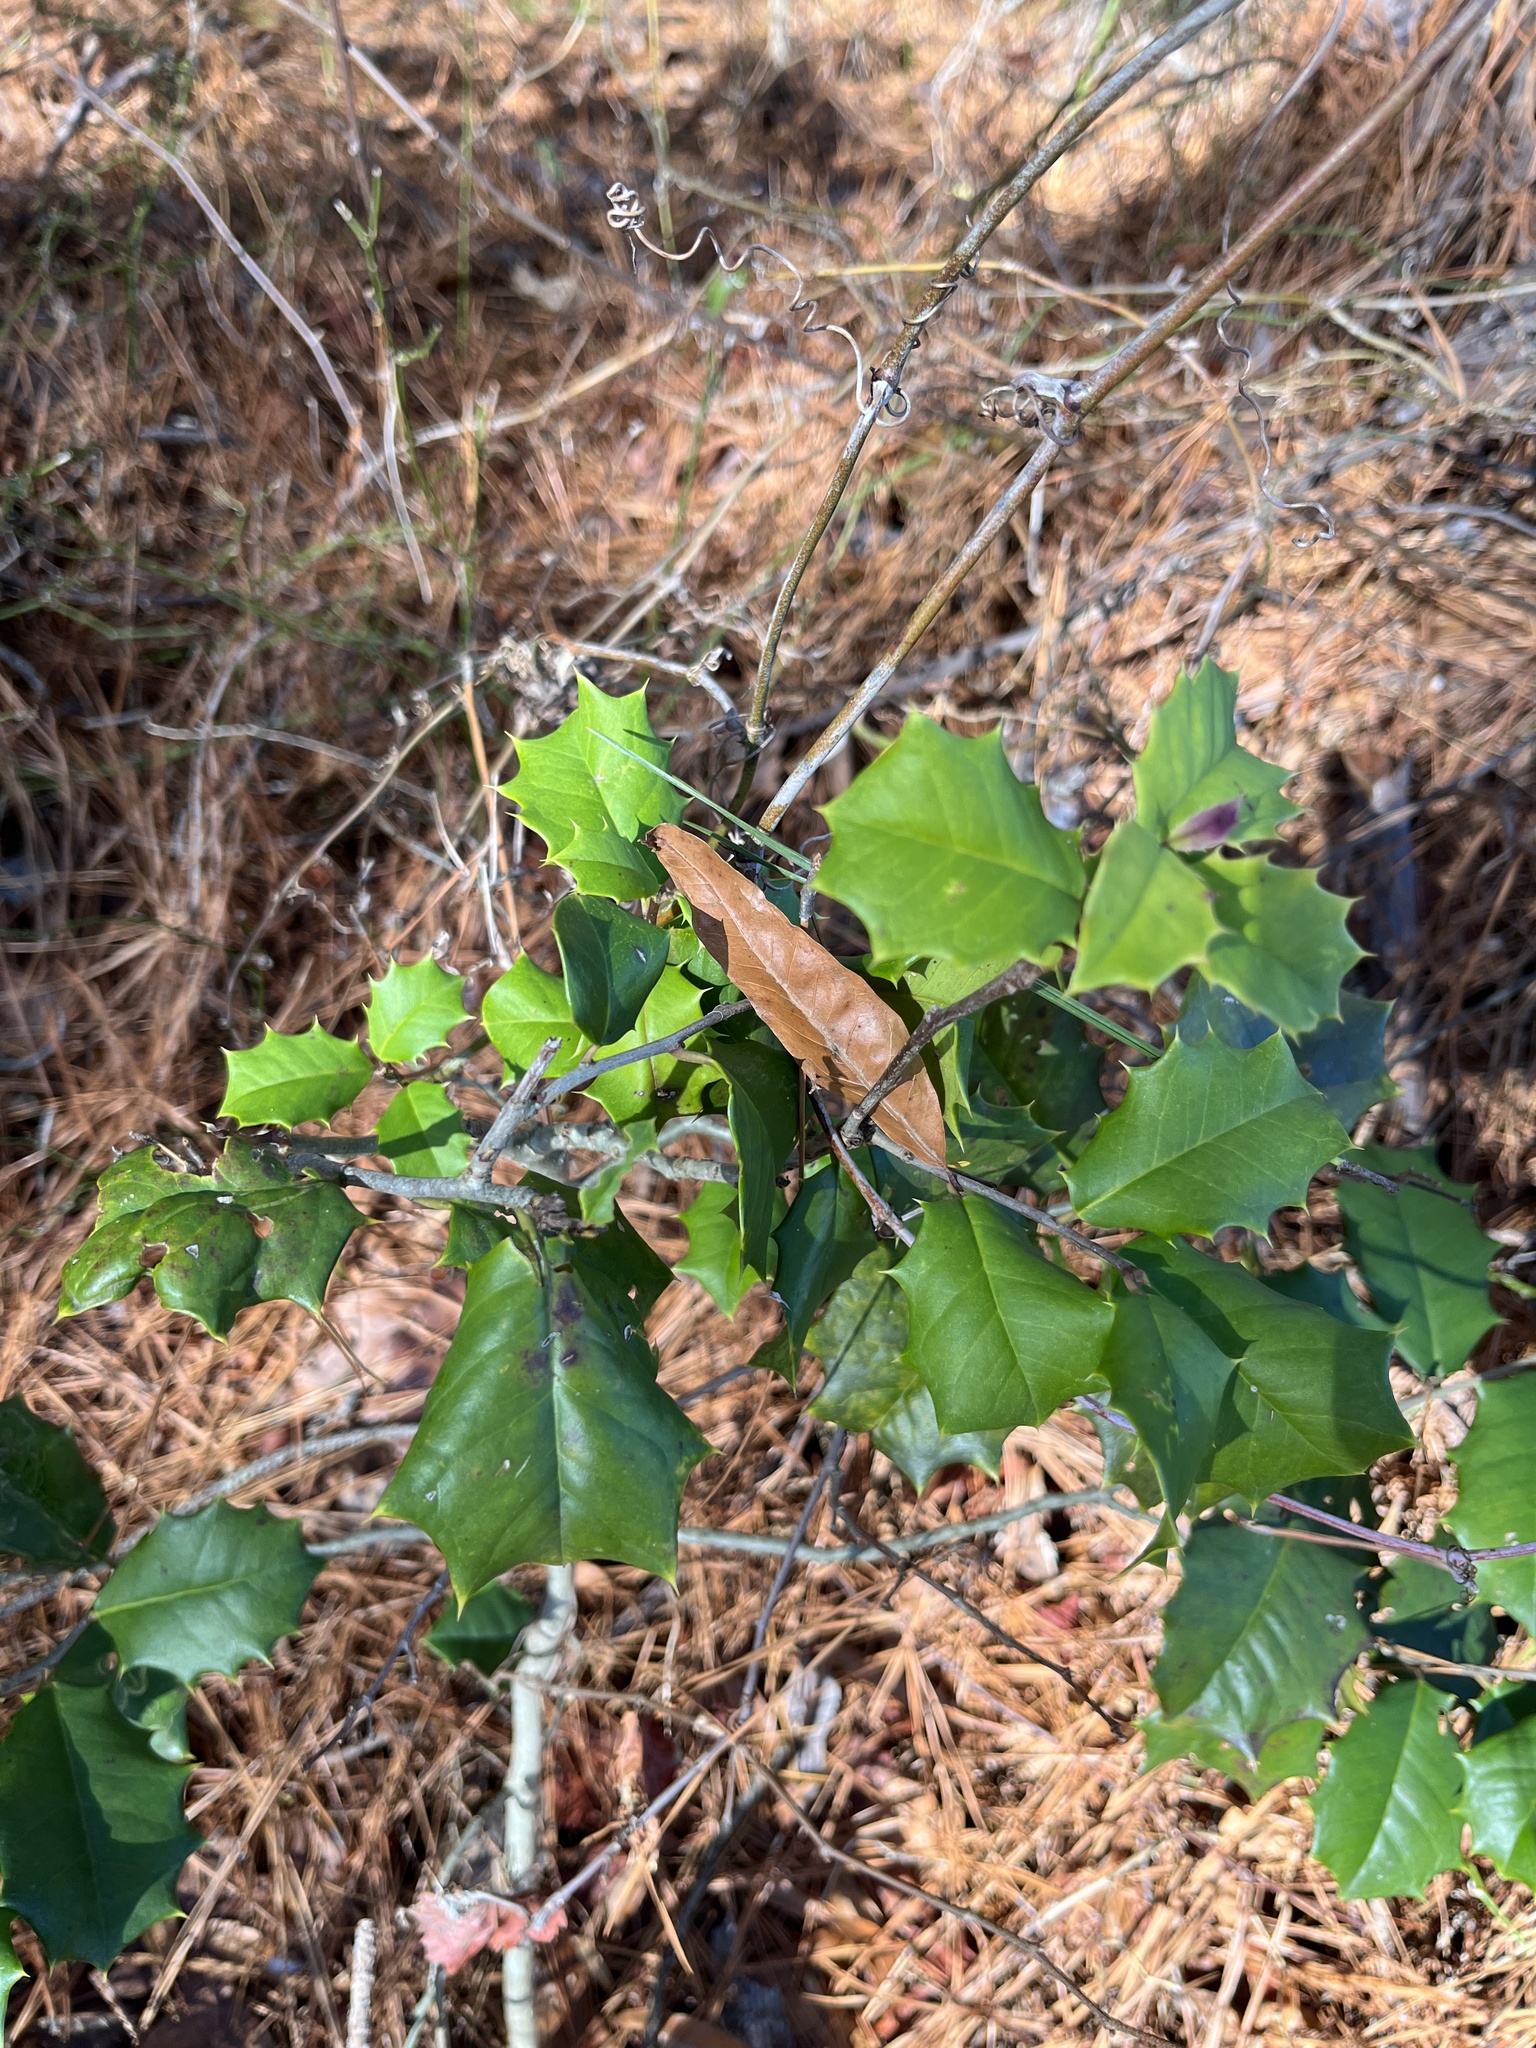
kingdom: Plantae
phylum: Tracheophyta
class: Magnoliopsida
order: Aquifoliales
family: Aquifoliaceae
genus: Ilex
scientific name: Ilex opaca
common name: American holly
